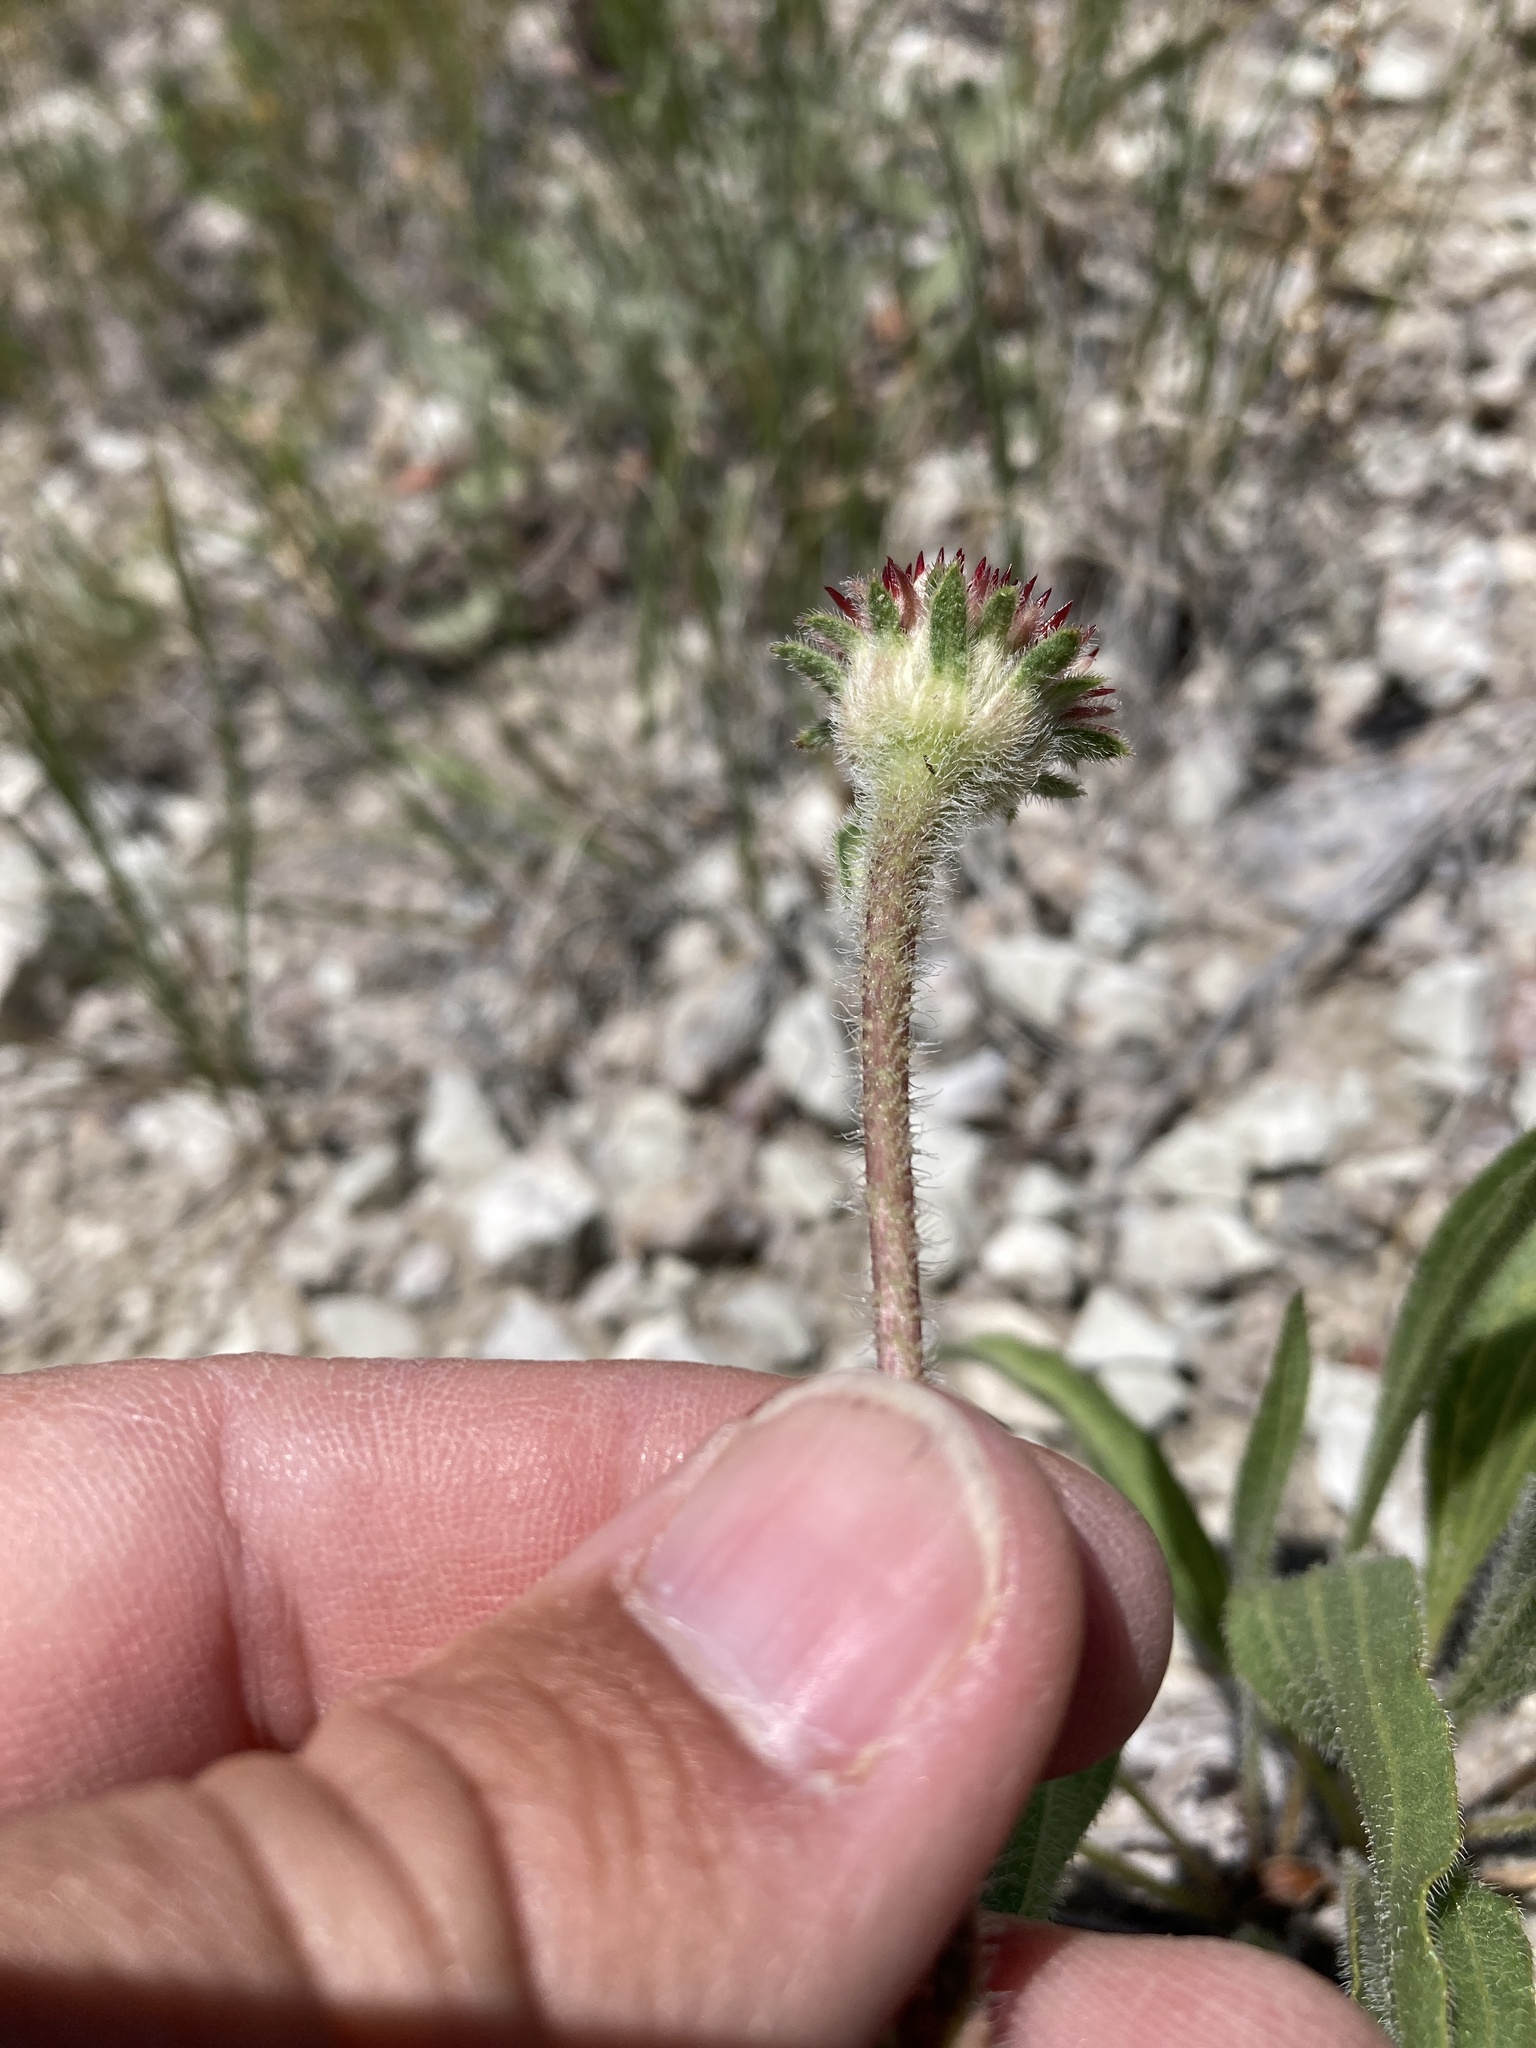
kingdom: Plantae
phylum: Tracheophyta
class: Magnoliopsida
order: Asterales
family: Asteraceae
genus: Echinacea
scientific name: Echinacea angustifolia
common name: Black-sampson echinacea
